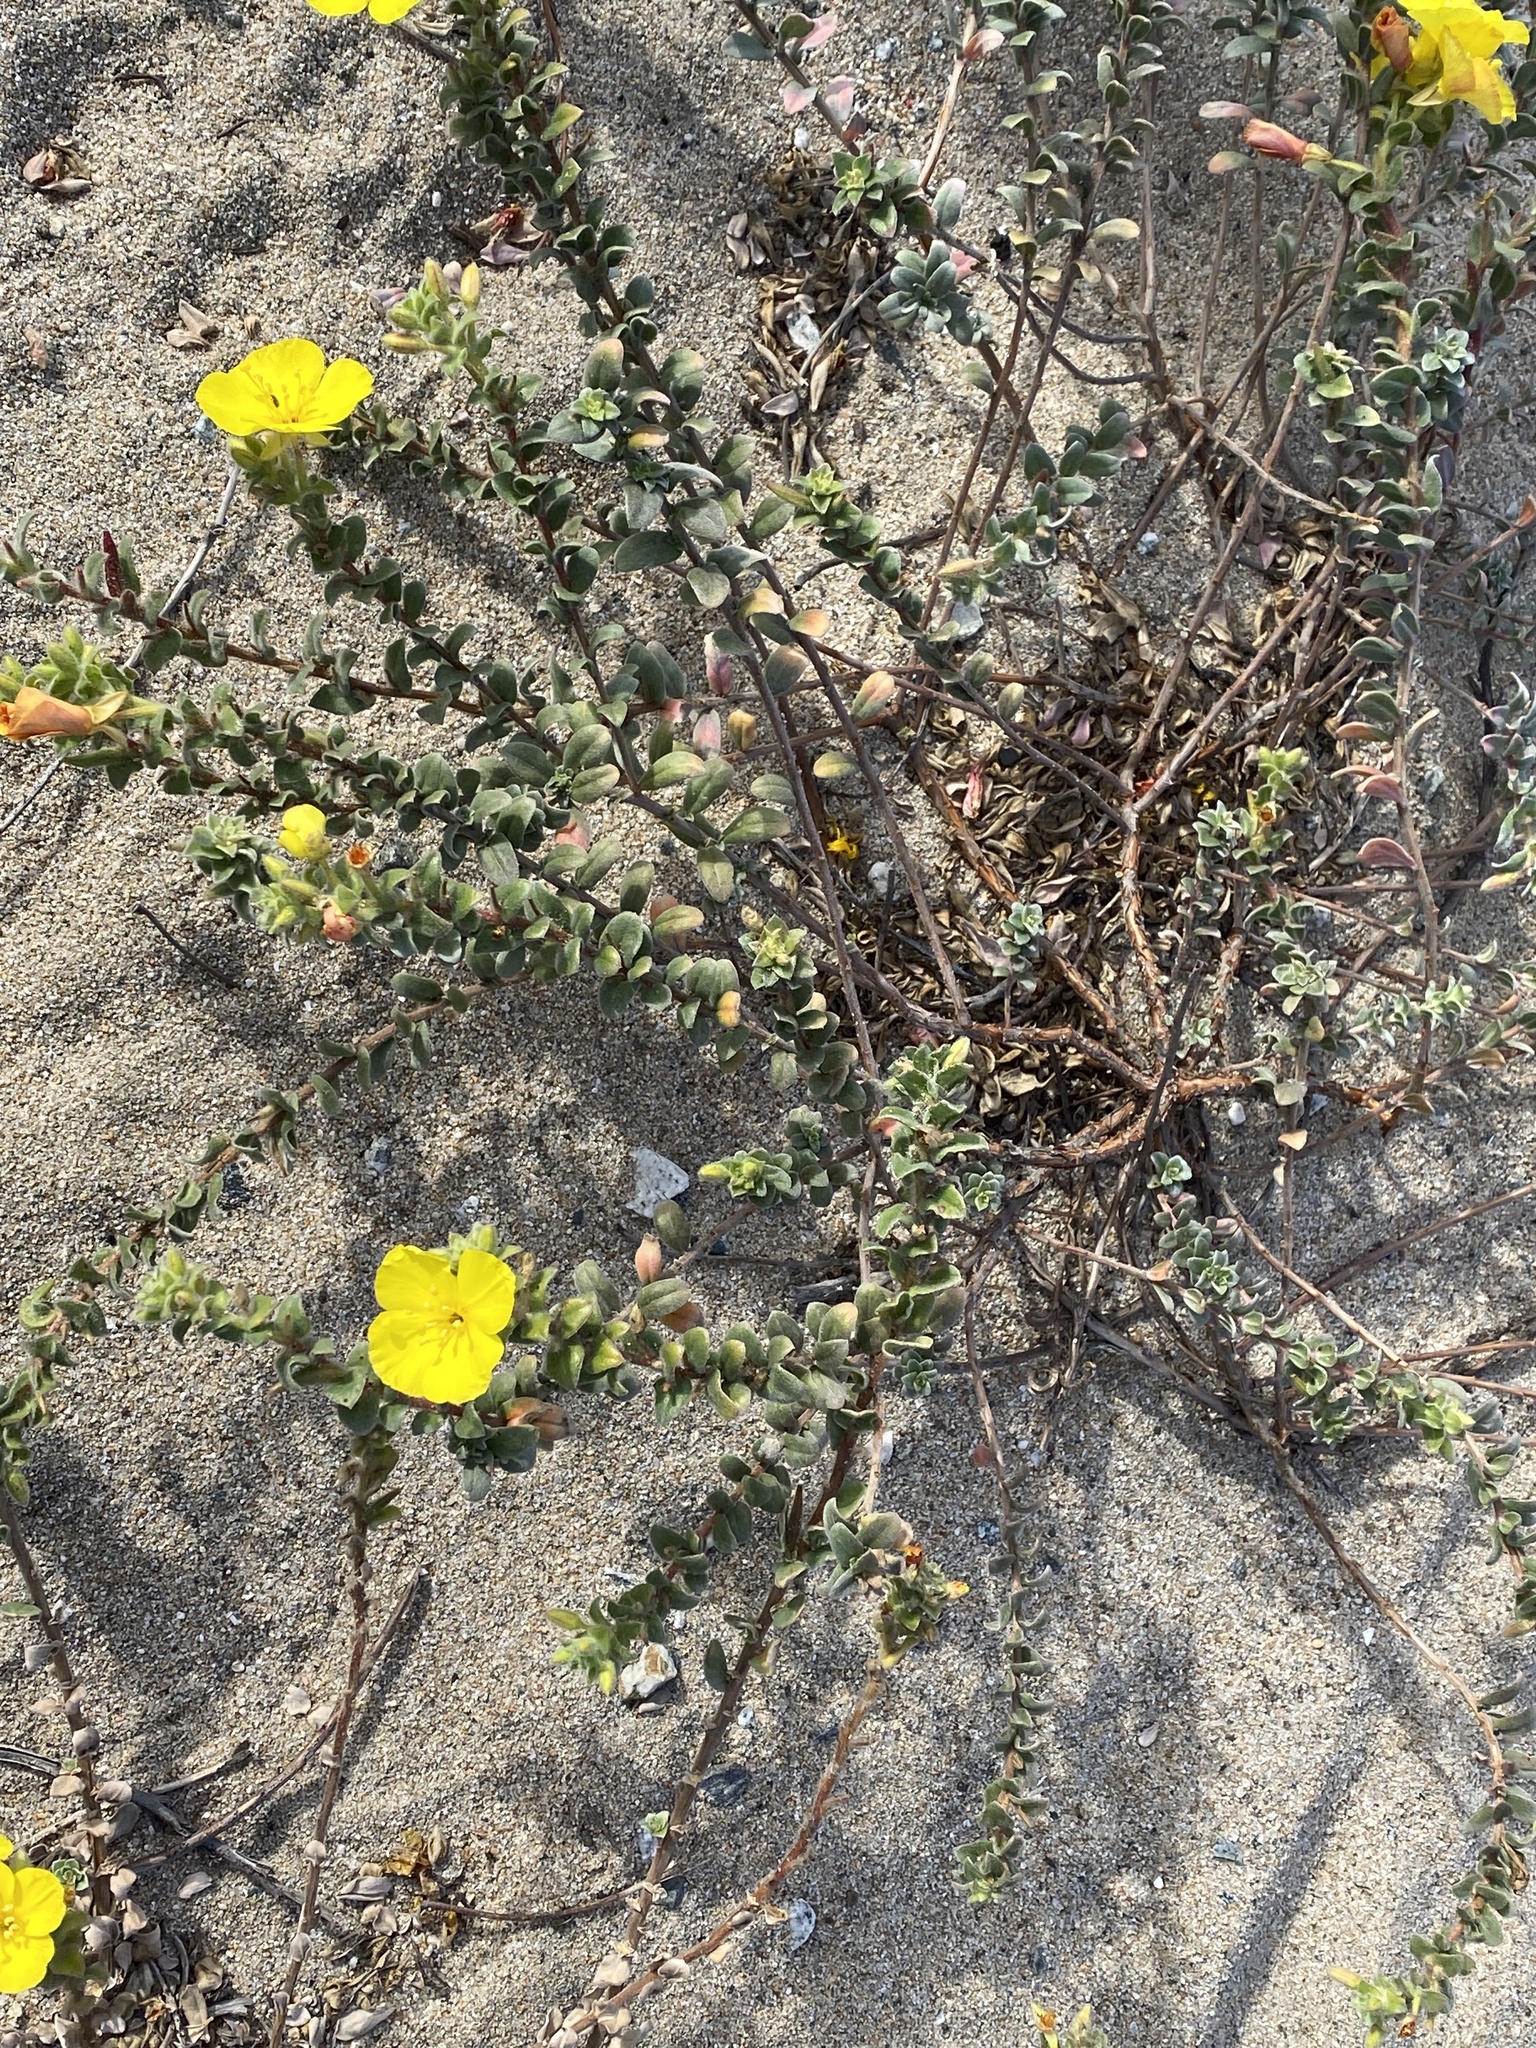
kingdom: Plantae
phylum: Tracheophyta
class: Magnoliopsida
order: Myrtales
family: Onagraceae
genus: Camissoniopsis
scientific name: Camissoniopsis cheiranthifolia
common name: Beach suncup
